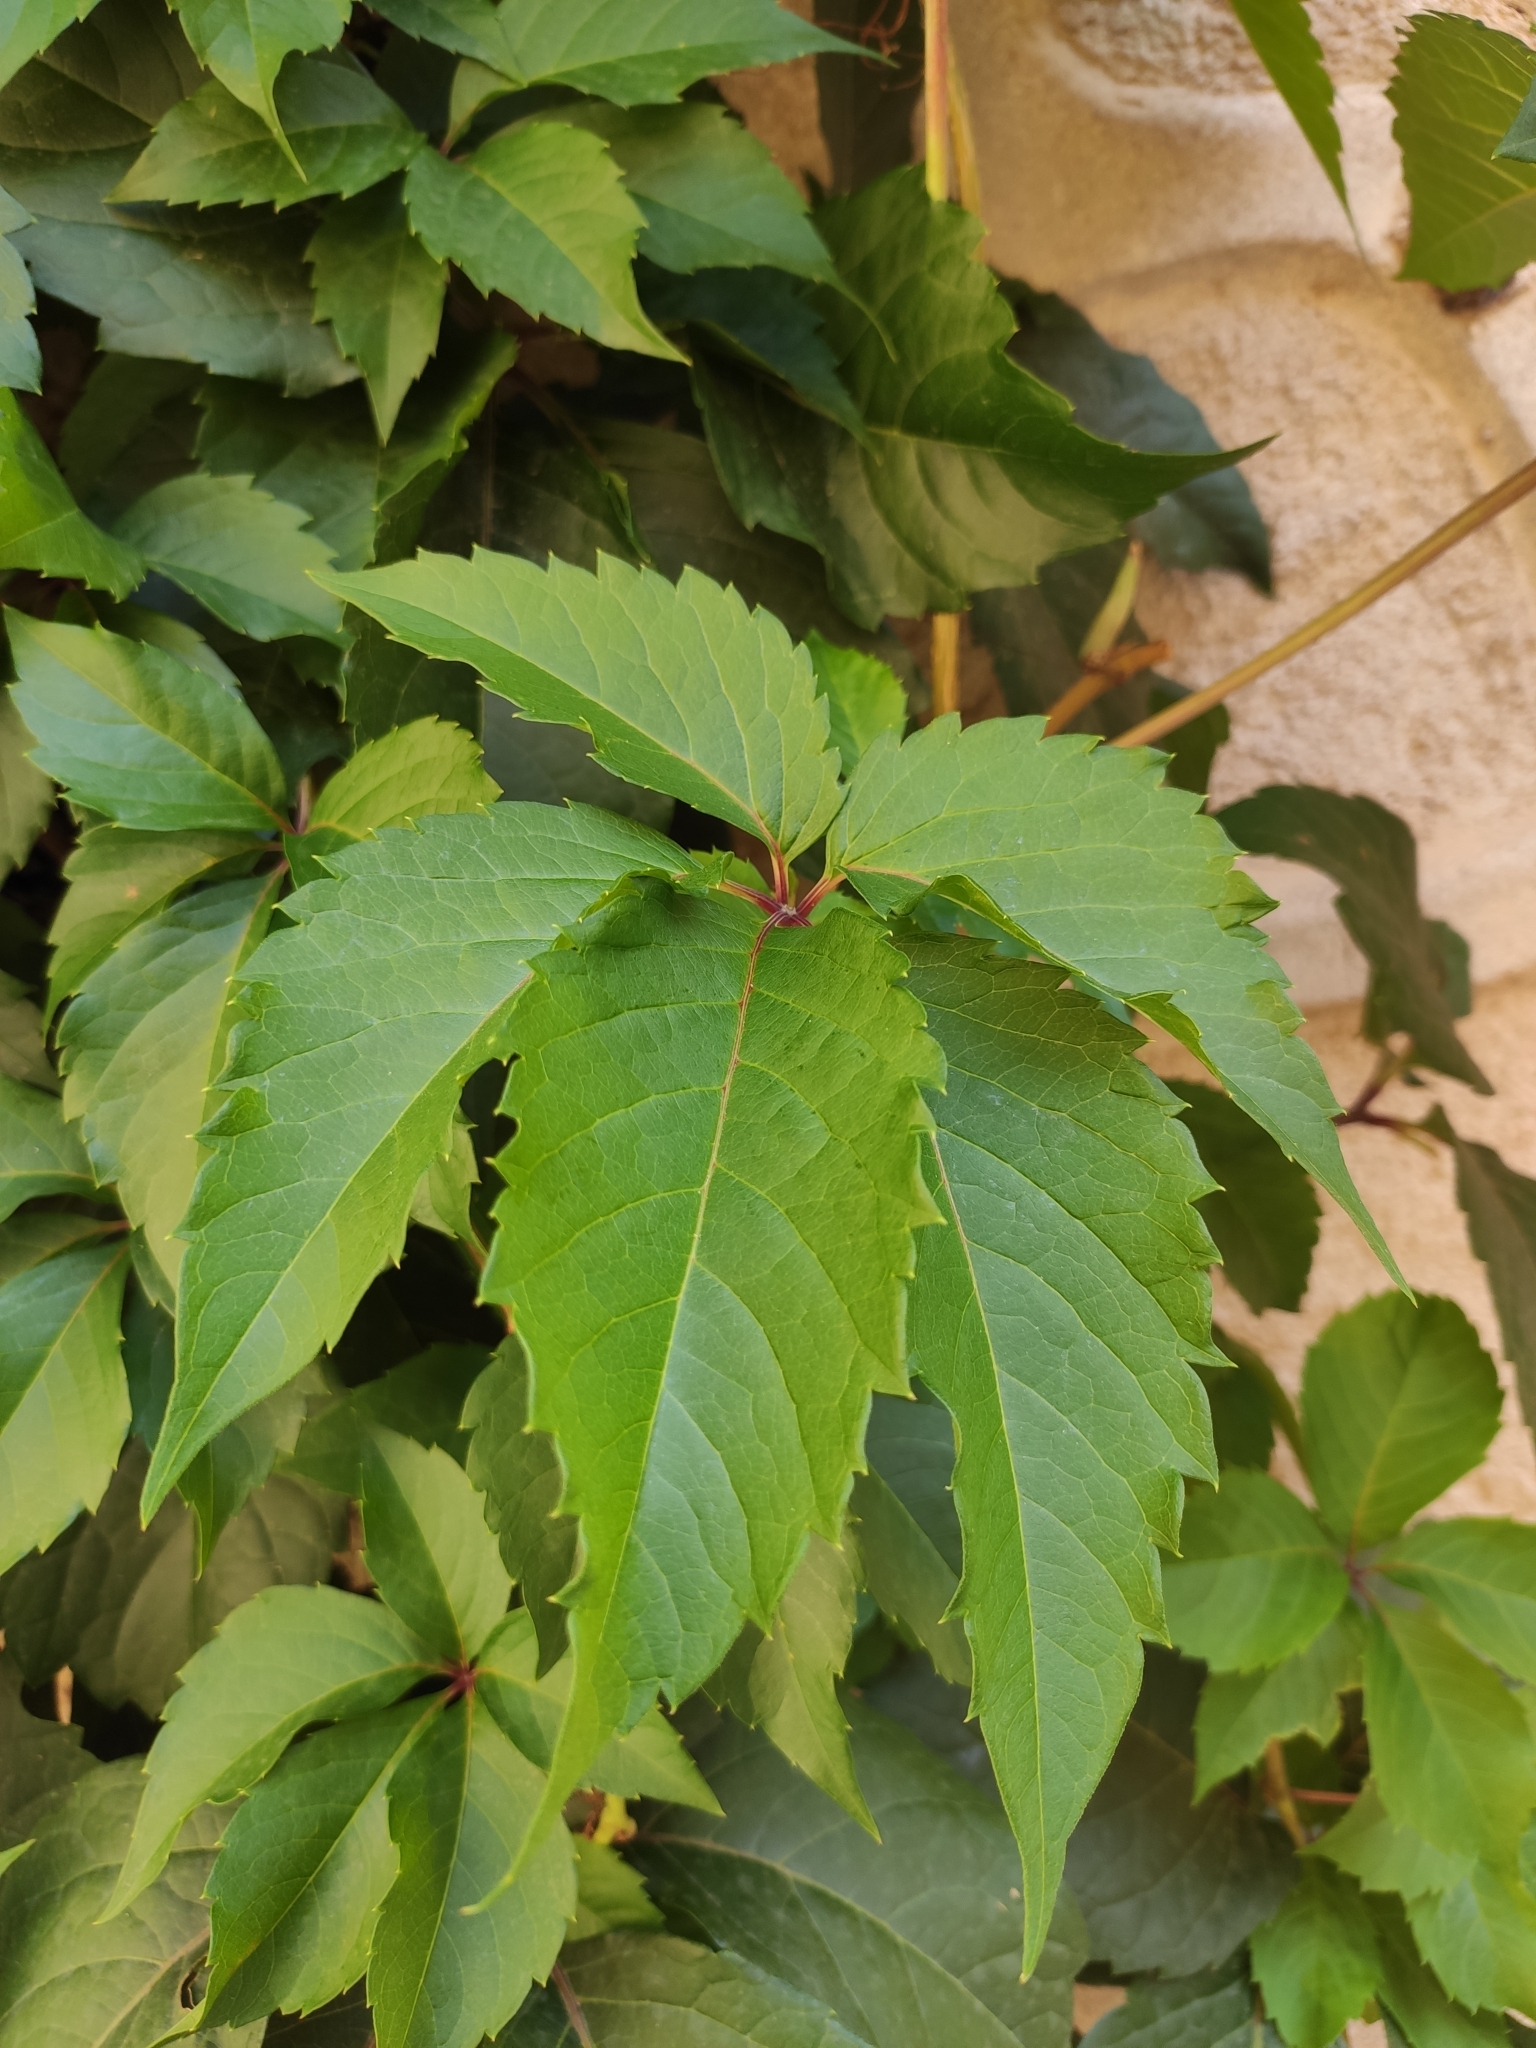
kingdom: Plantae
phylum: Tracheophyta
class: Magnoliopsida
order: Vitales
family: Vitaceae
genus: Parthenocissus
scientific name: Parthenocissus quinquefolia
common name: Virginia-creeper
